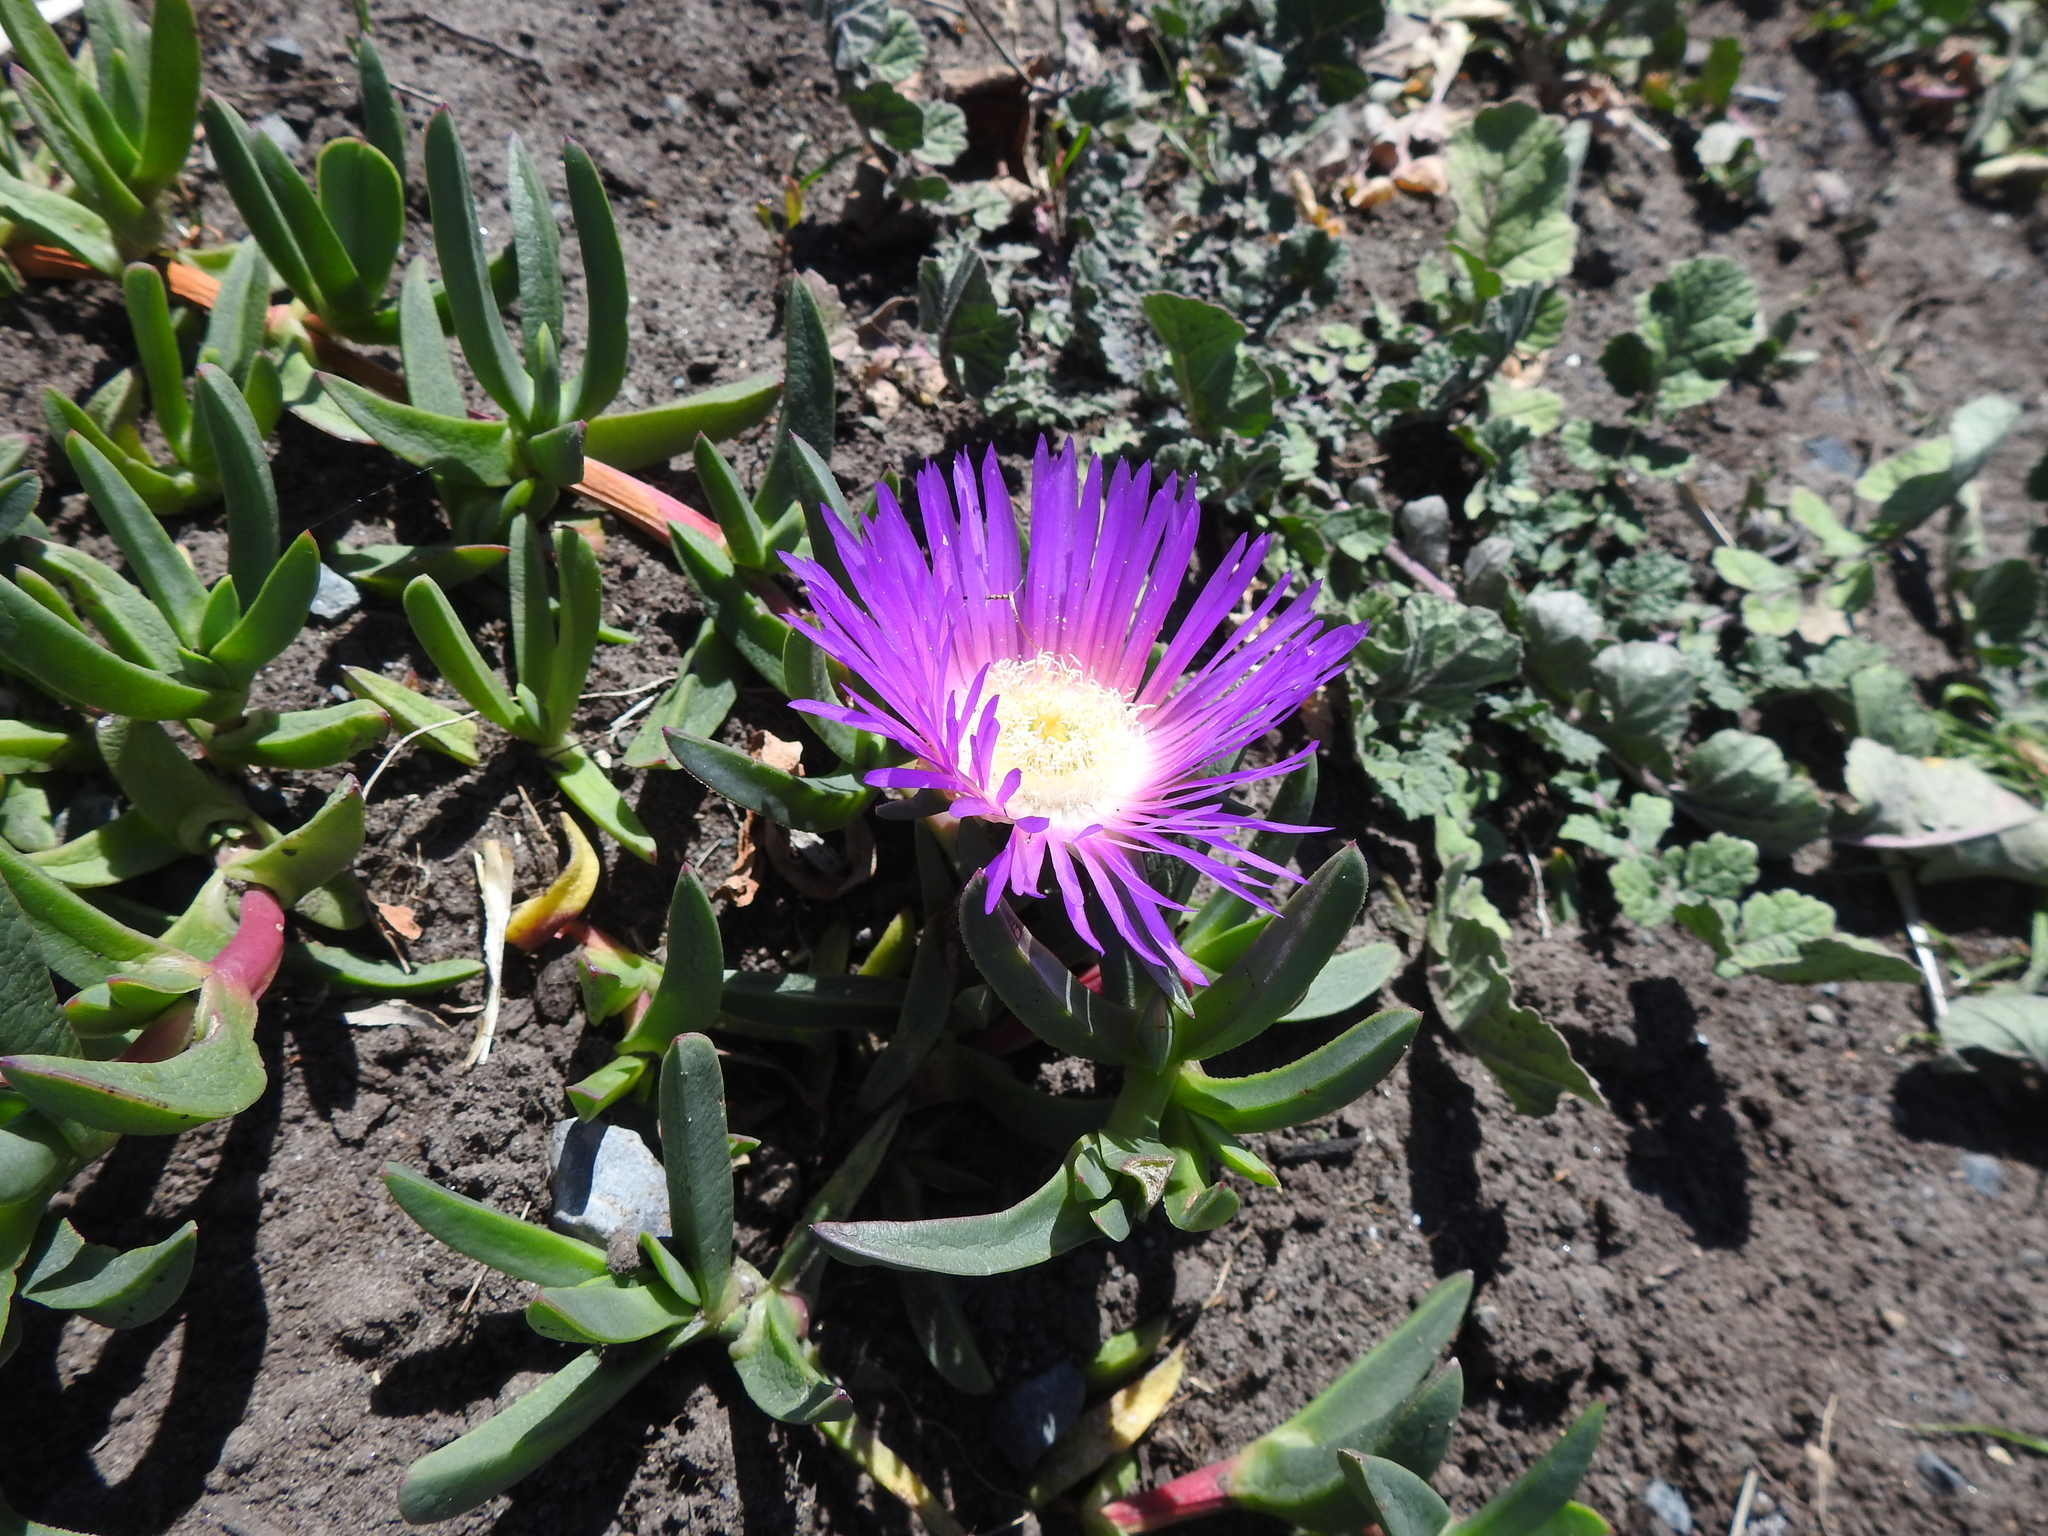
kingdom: Plantae
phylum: Tracheophyta
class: Magnoliopsida
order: Caryophyllales
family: Aizoaceae
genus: Carpobrotus
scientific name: Carpobrotus rossii
